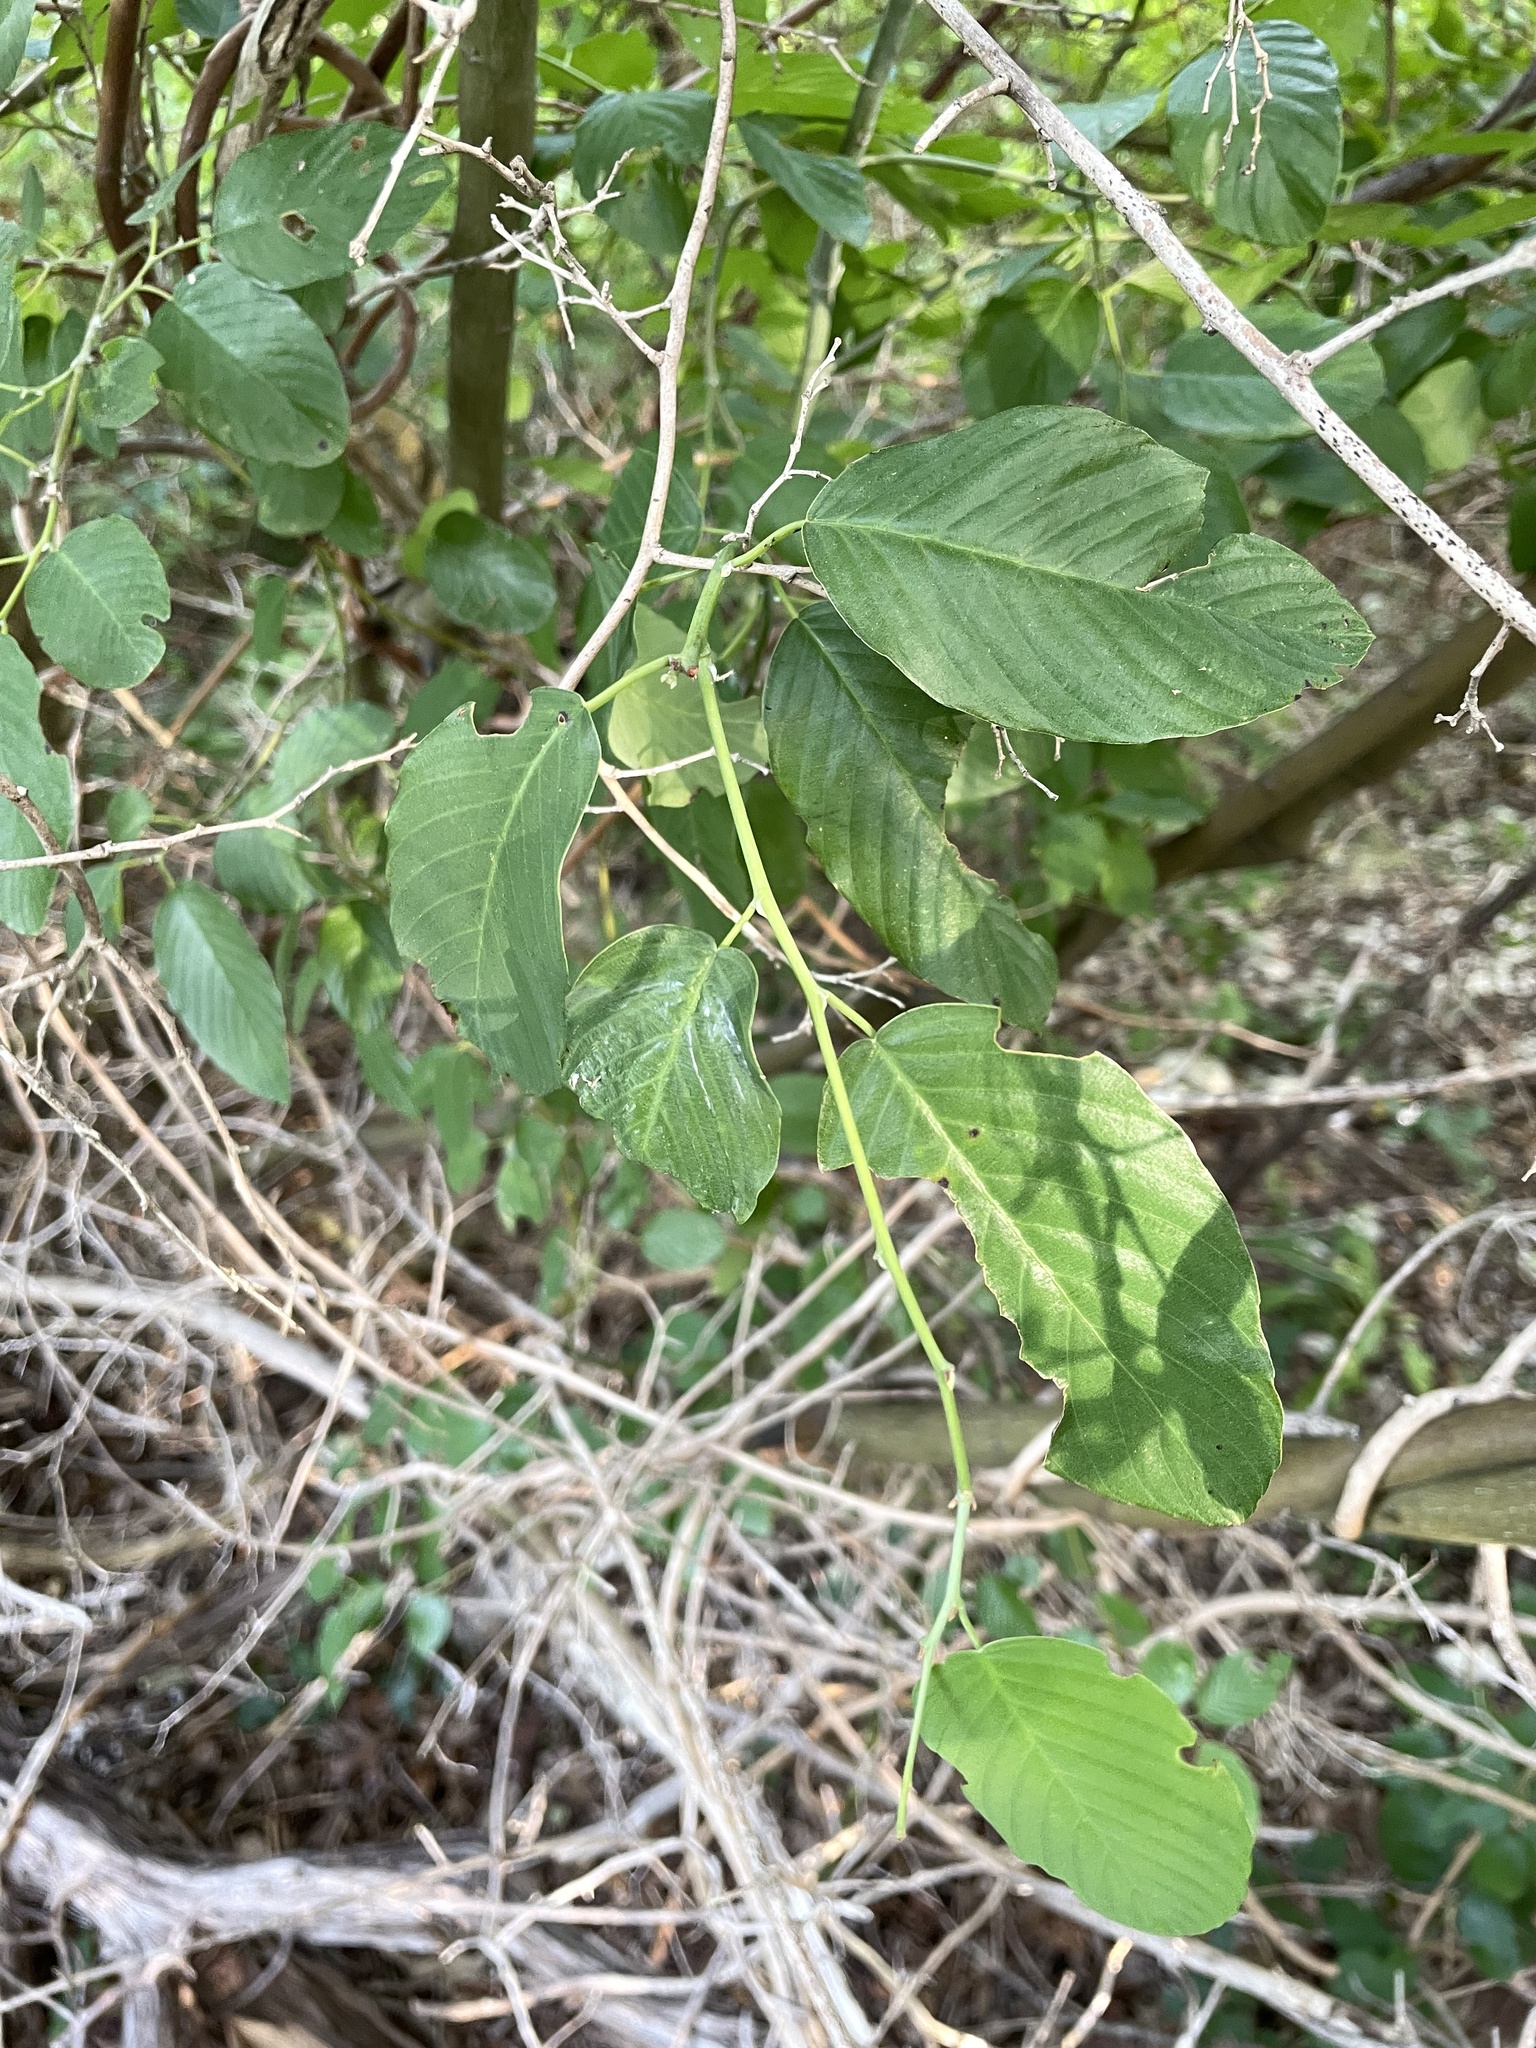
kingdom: Plantae
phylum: Tracheophyta
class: Magnoliopsida
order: Rosales
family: Rhamnaceae
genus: Berchemia
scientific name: Berchemia scandens
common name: Supplejack
